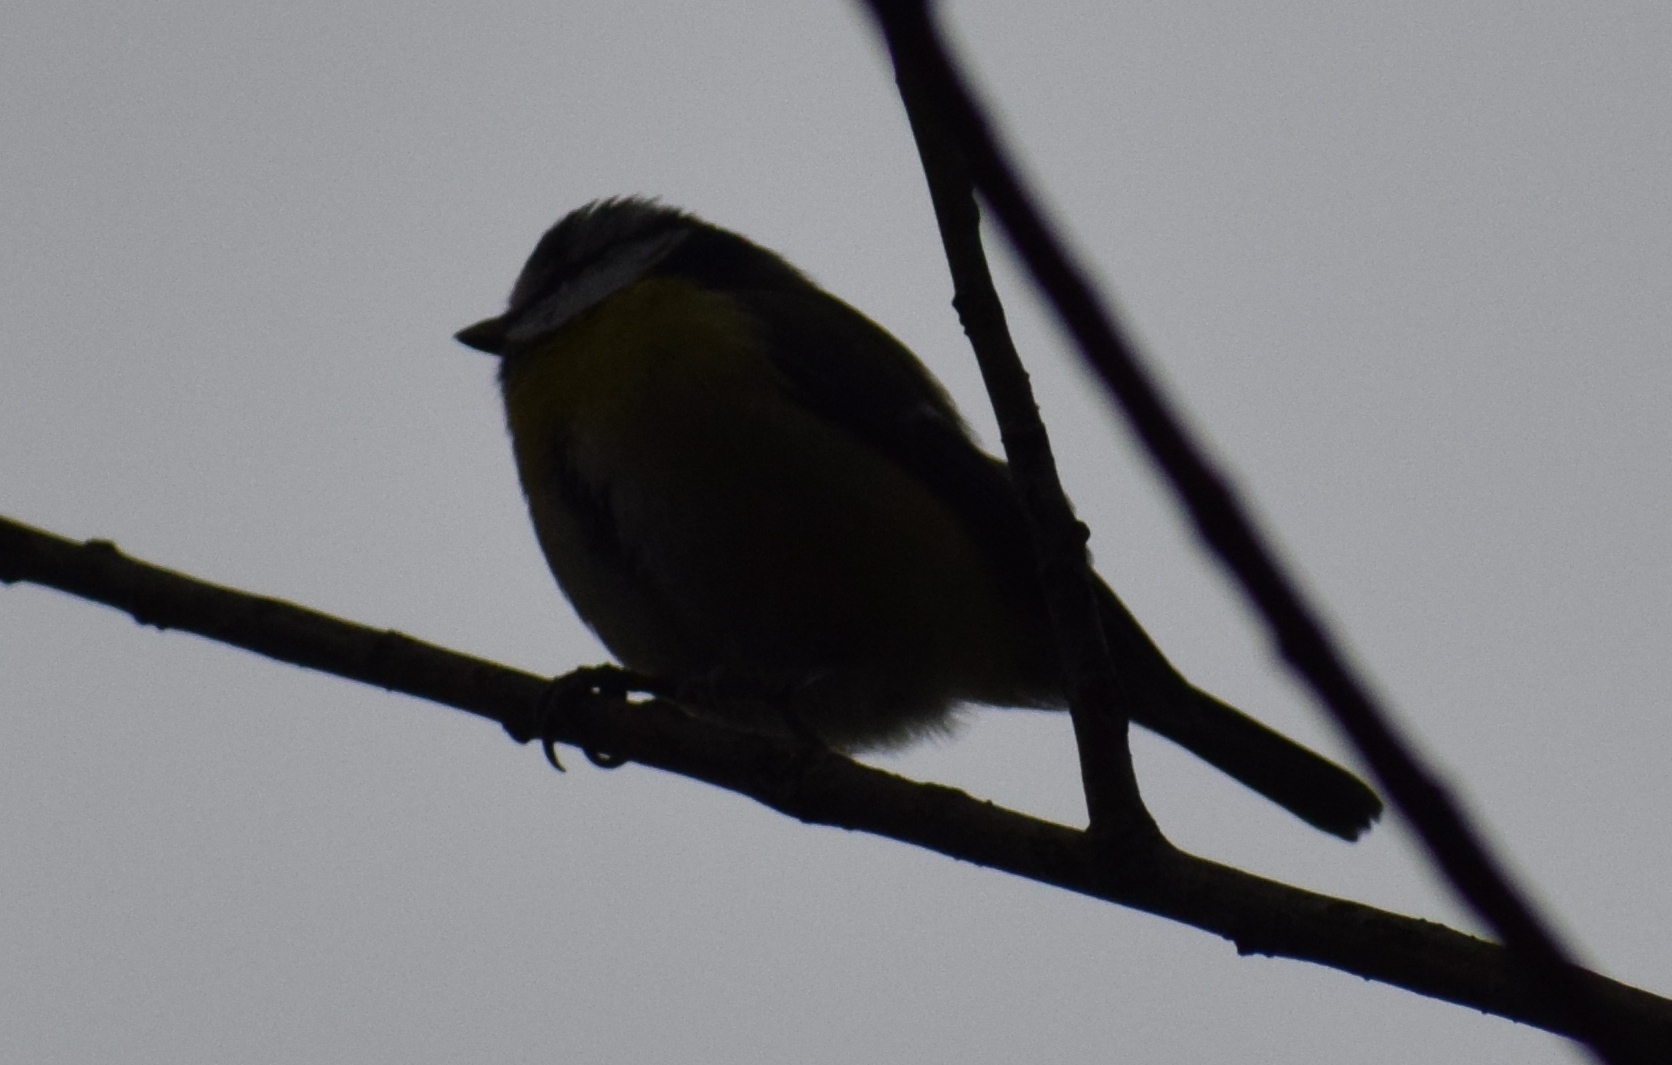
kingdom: Animalia
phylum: Chordata
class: Aves
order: Passeriformes
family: Paridae
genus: Cyanistes
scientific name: Cyanistes caeruleus
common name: Eurasian blue tit
